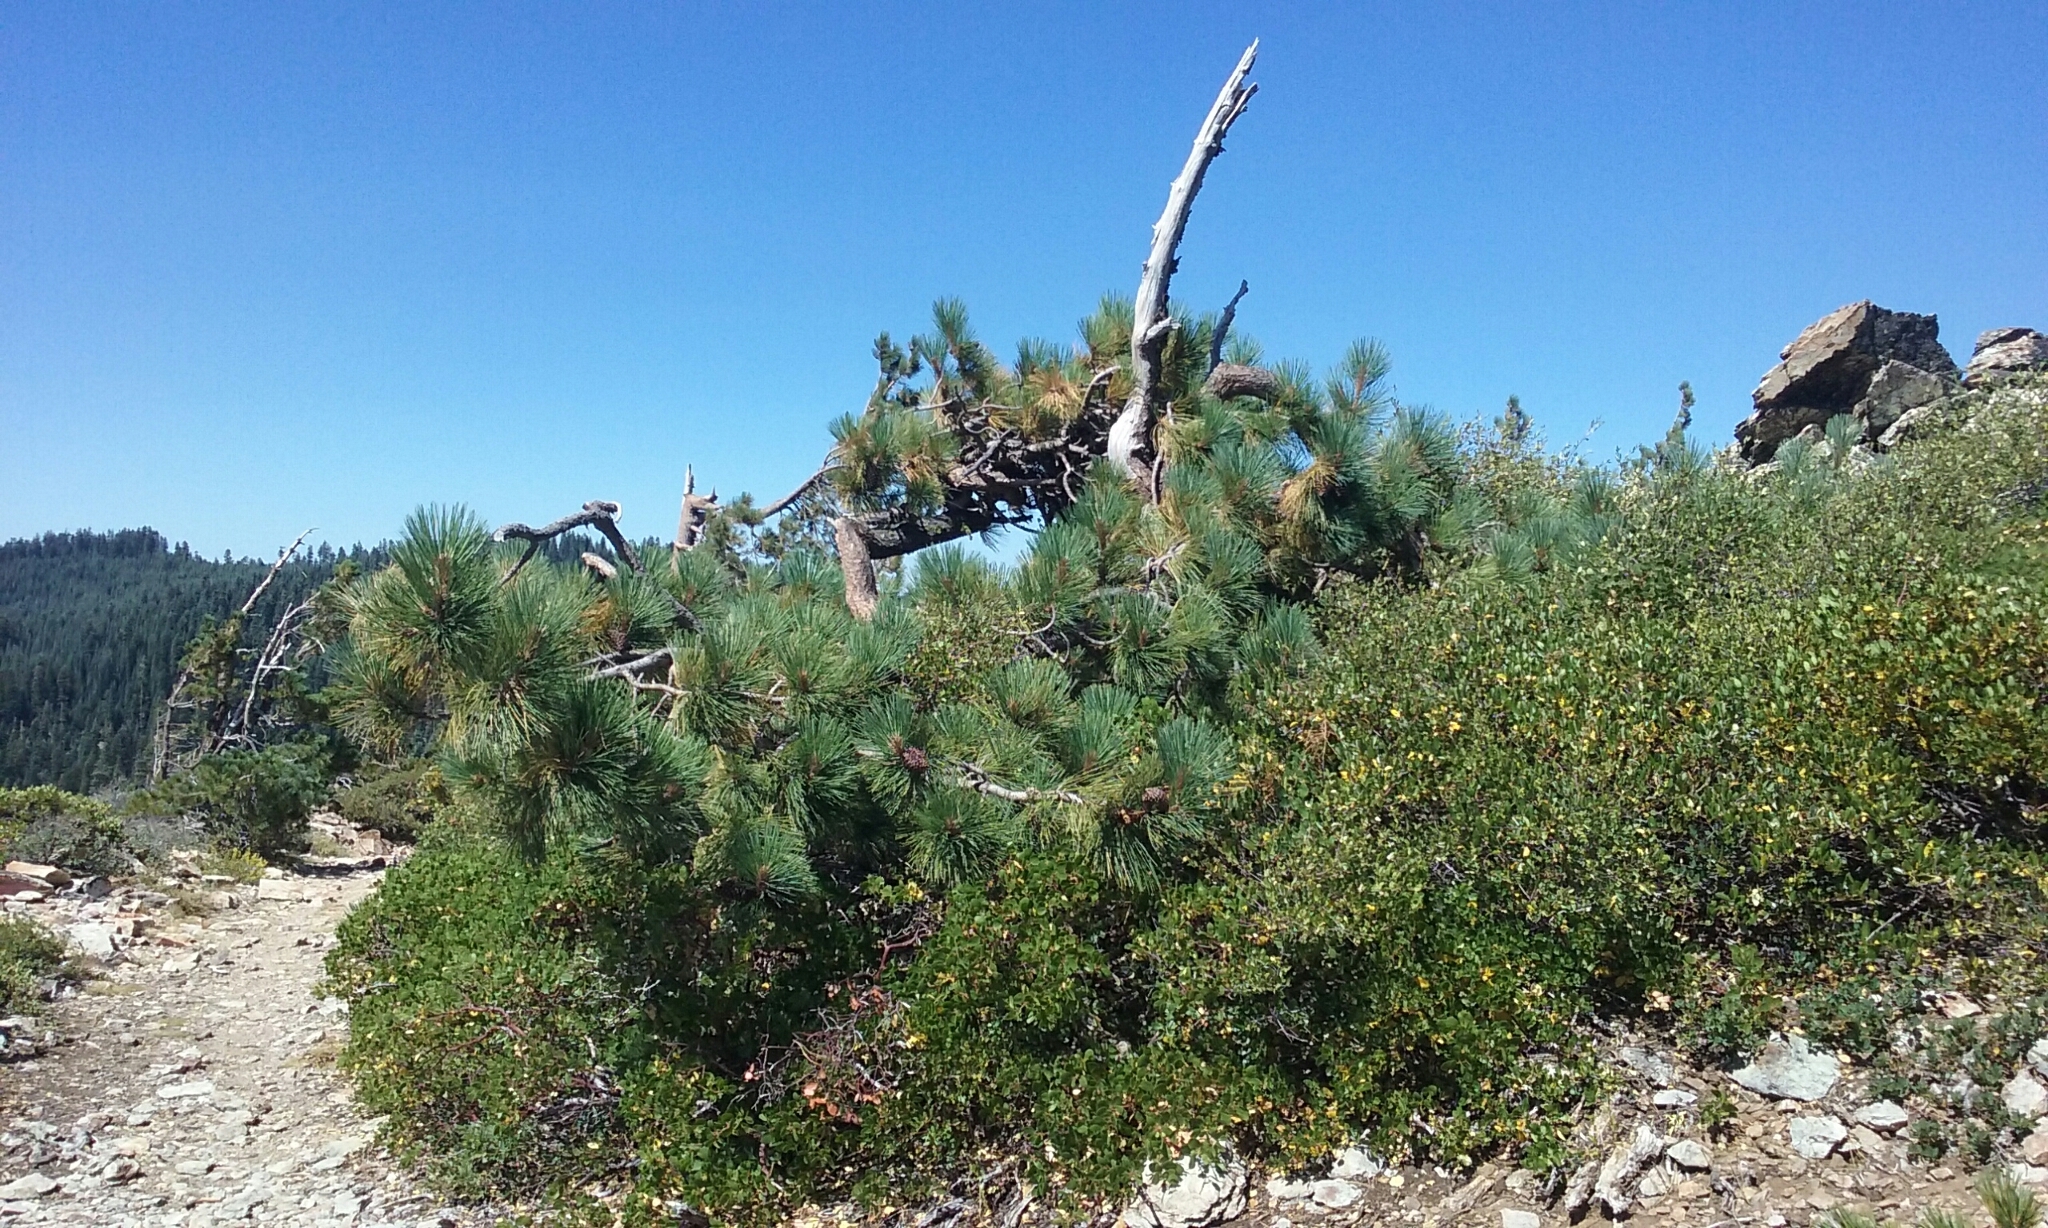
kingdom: Plantae
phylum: Tracheophyta
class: Pinopsida
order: Pinales
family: Pinaceae
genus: Pinus
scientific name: Pinus jeffreyi
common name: Jeffrey pine
